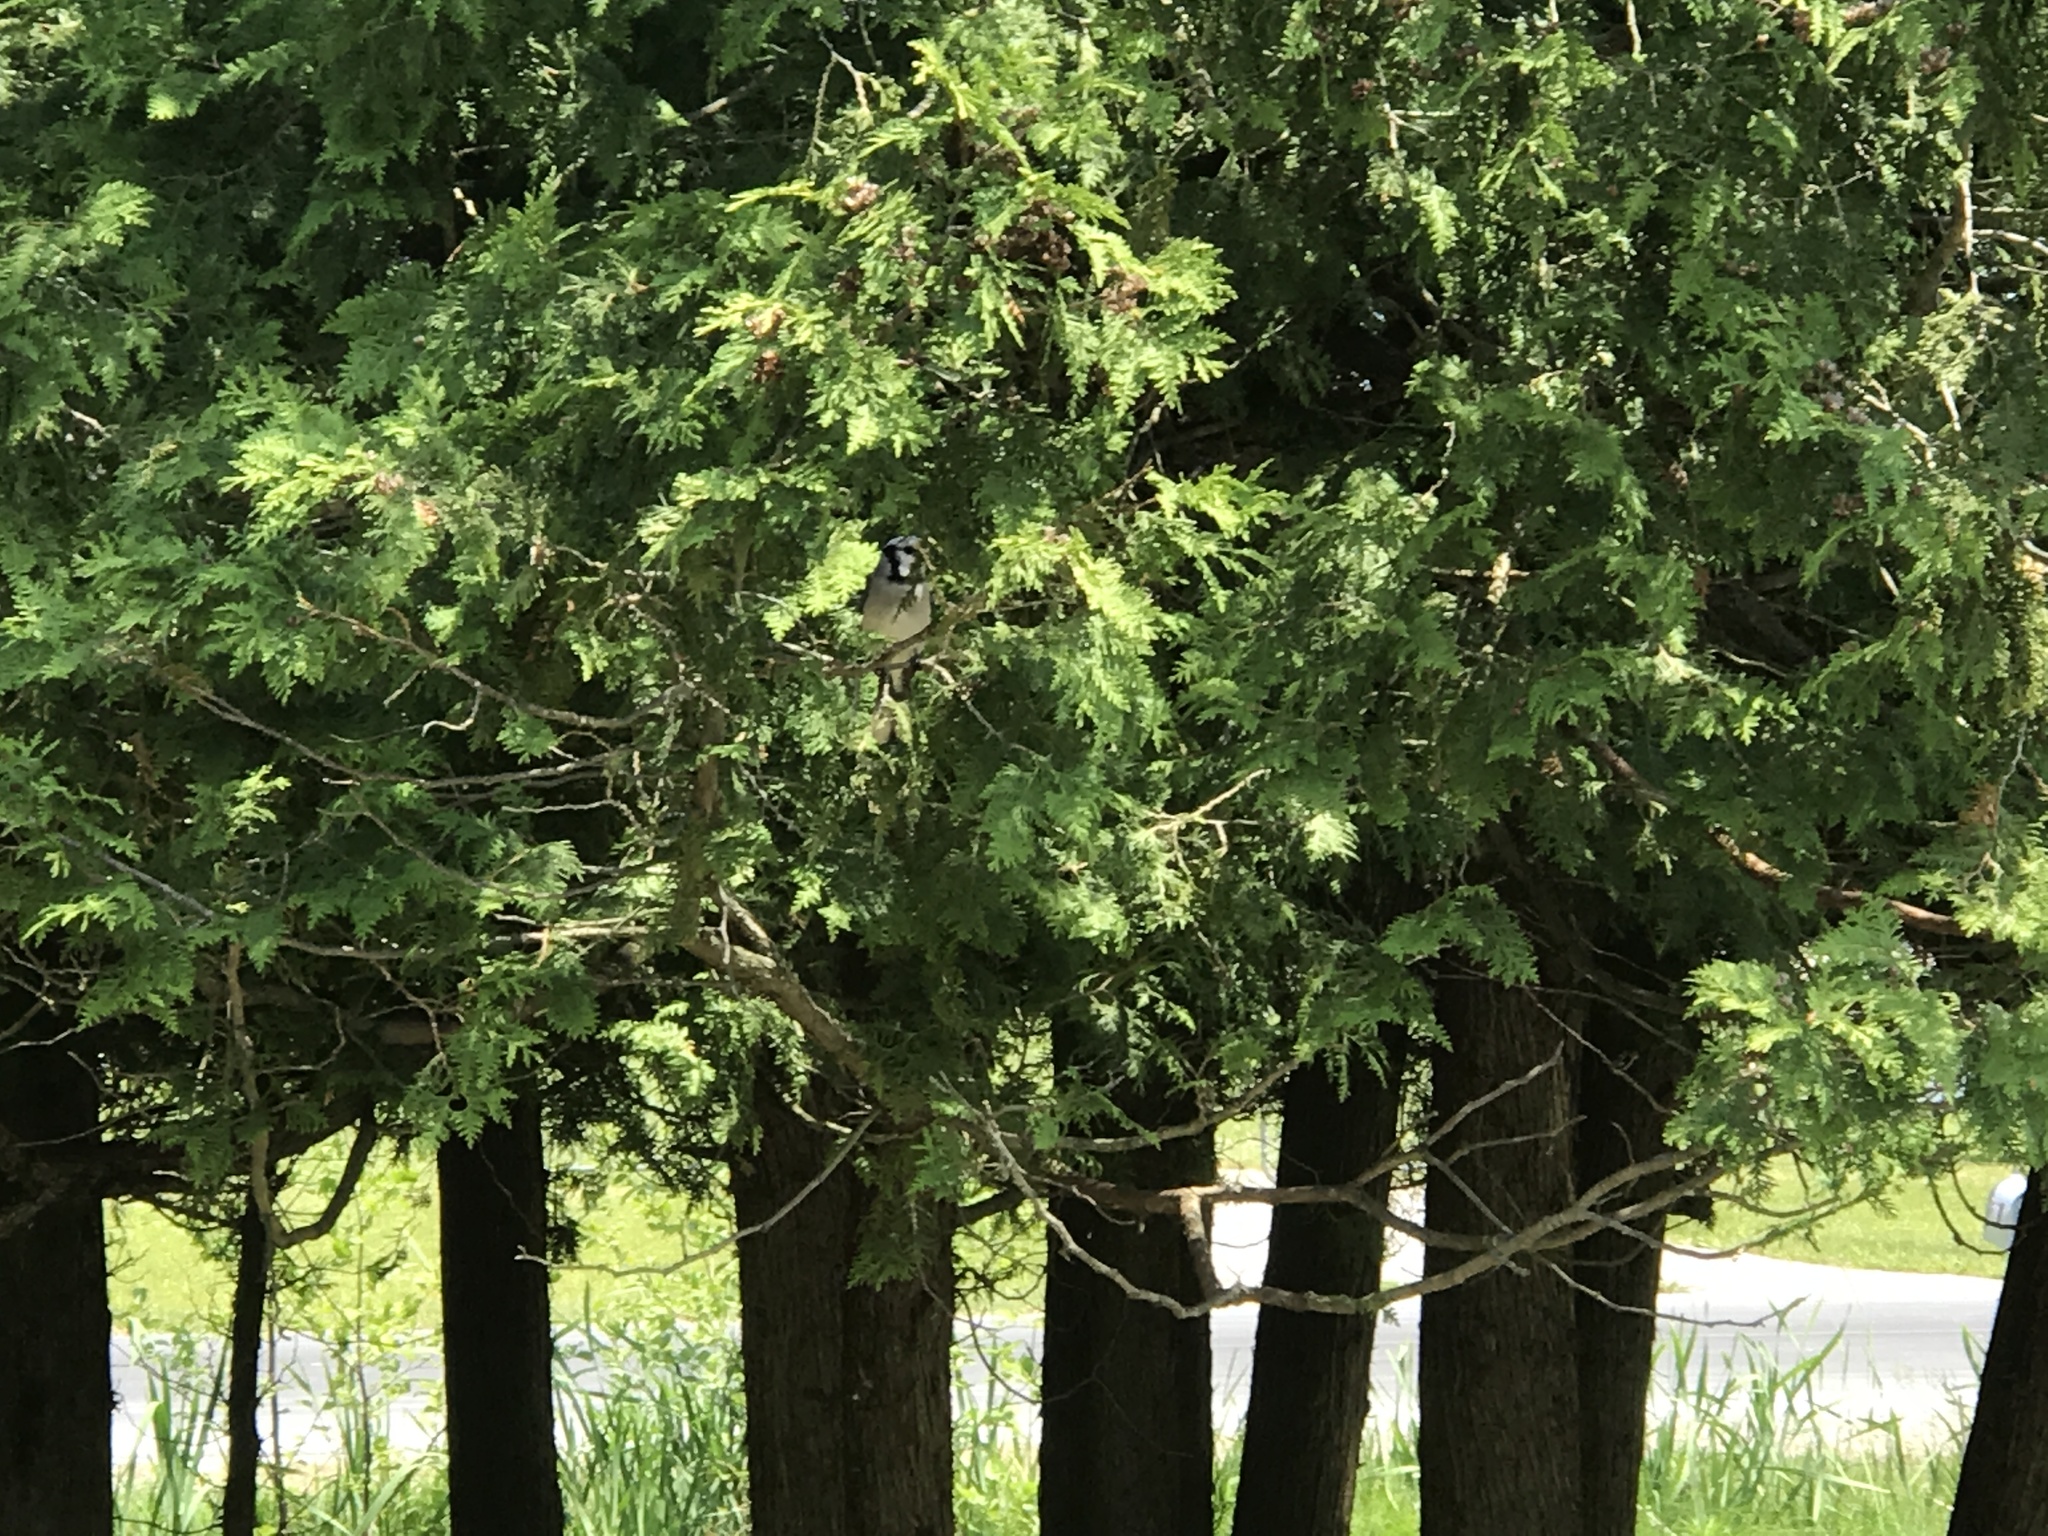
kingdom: Animalia
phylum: Chordata
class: Aves
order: Passeriformes
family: Corvidae
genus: Cyanocitta
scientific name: Cyanocitta cristata
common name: Blue jay
